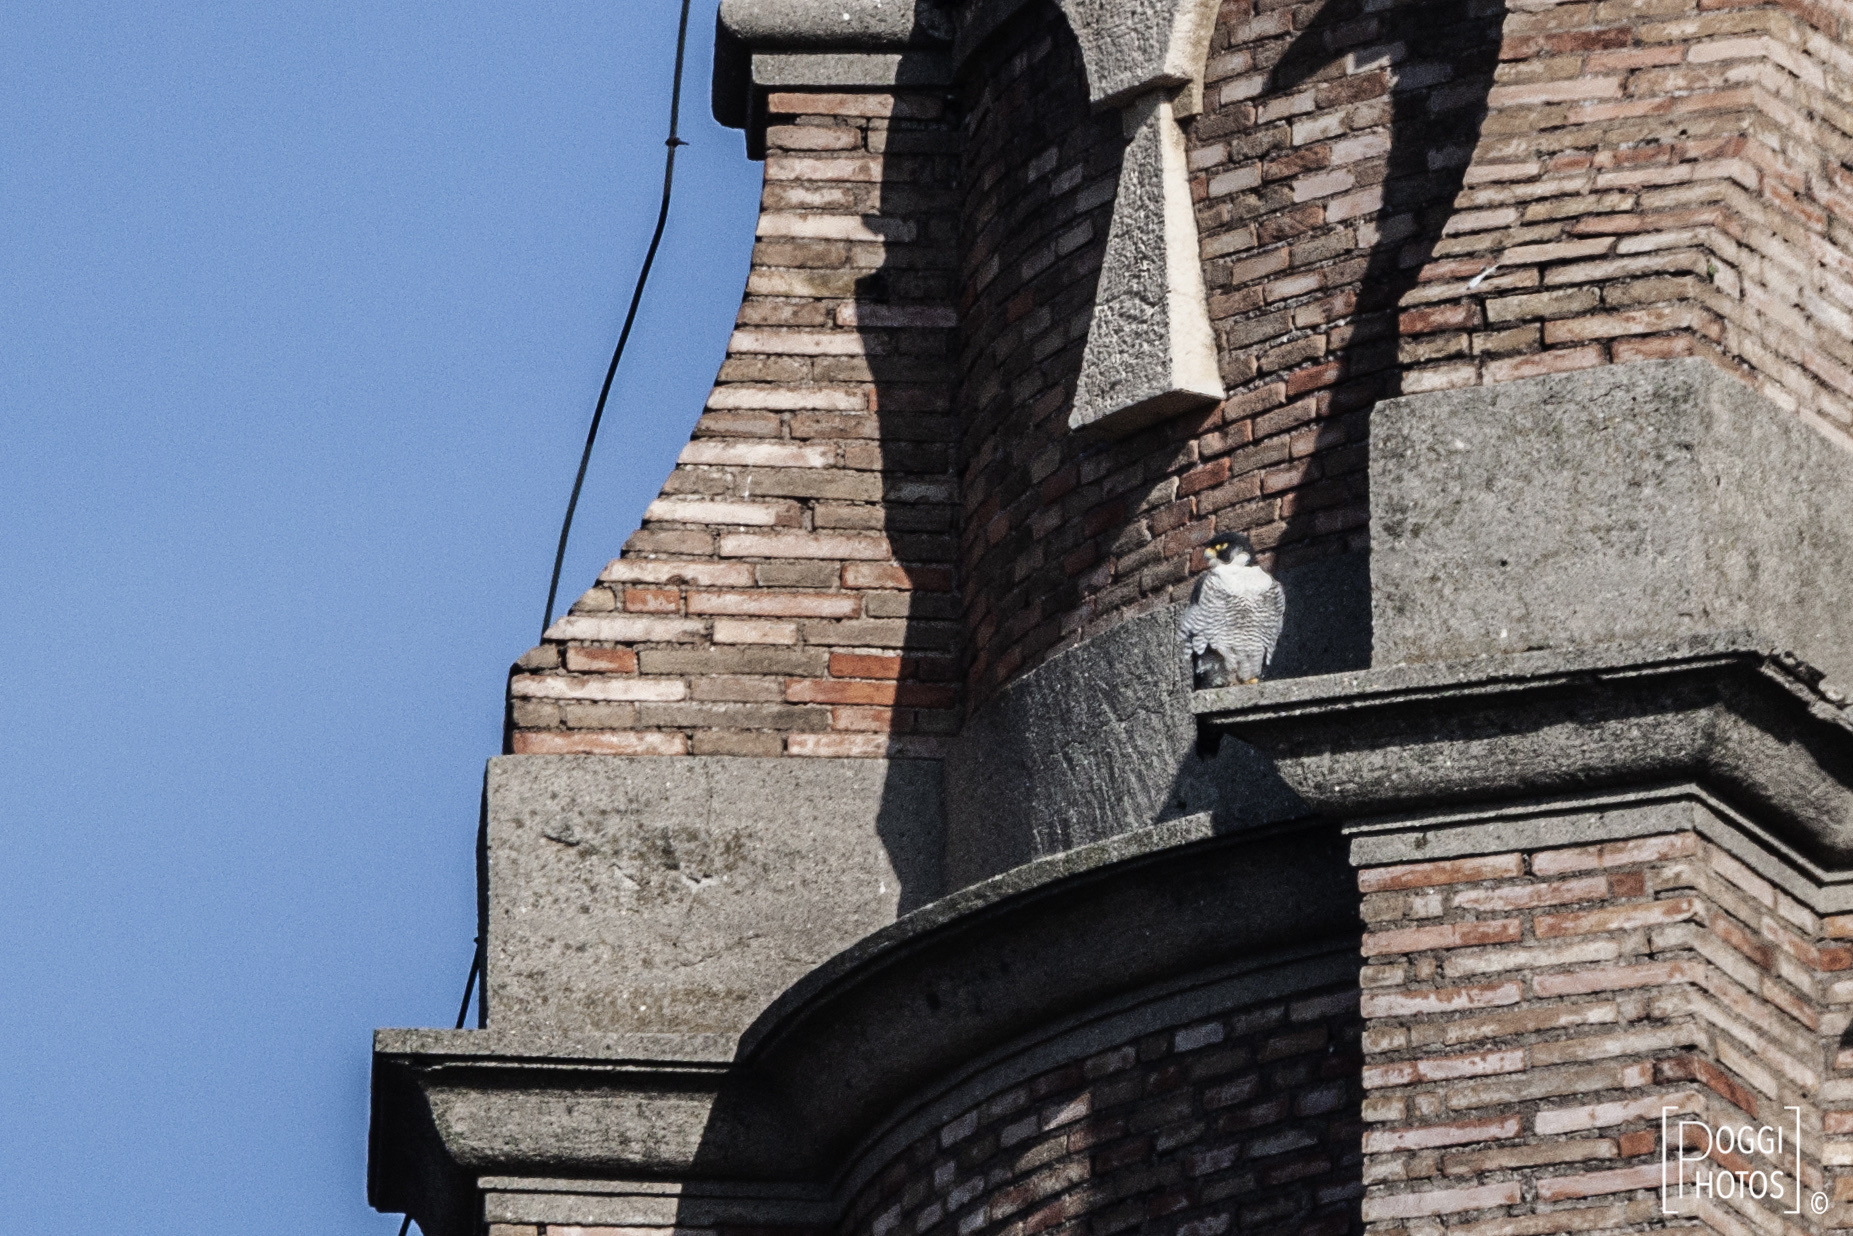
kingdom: Animalia
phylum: Chordata
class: Aves
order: Falconiformes
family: Falconidae
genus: Falco
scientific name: Falco peregrinus
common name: Peregrine falcon
